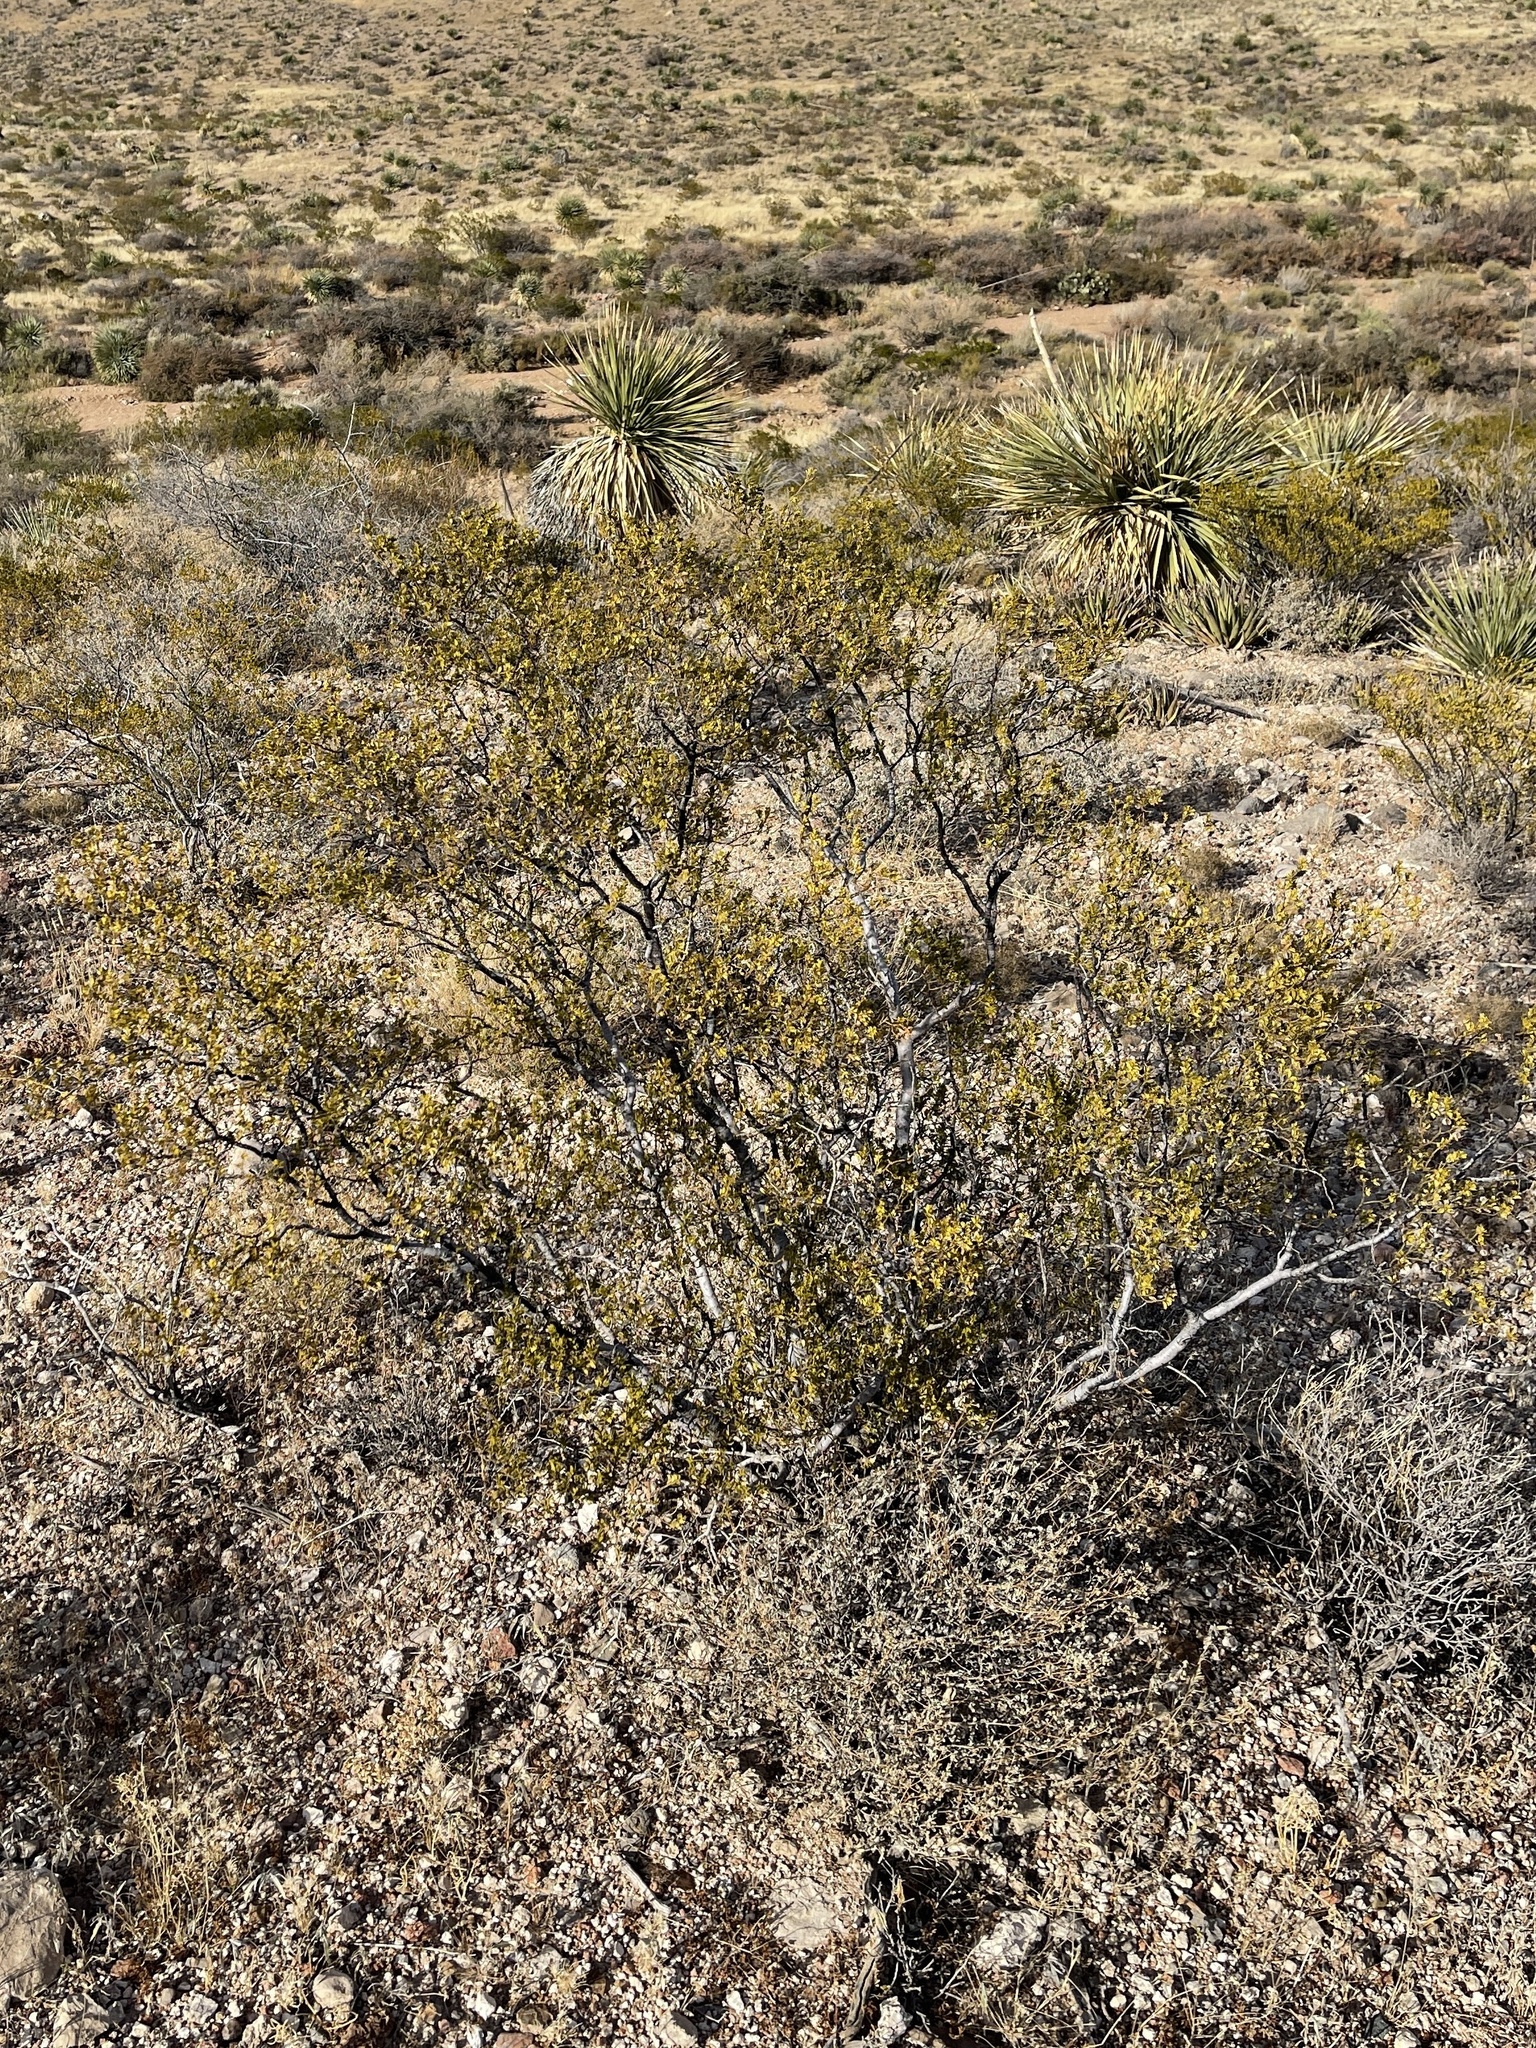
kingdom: Plantae
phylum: Tracheophyta
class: Magnoliopsida
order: Zygophyllales
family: Zygophyllaceae
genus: Larrea
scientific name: Larrea tridentata
